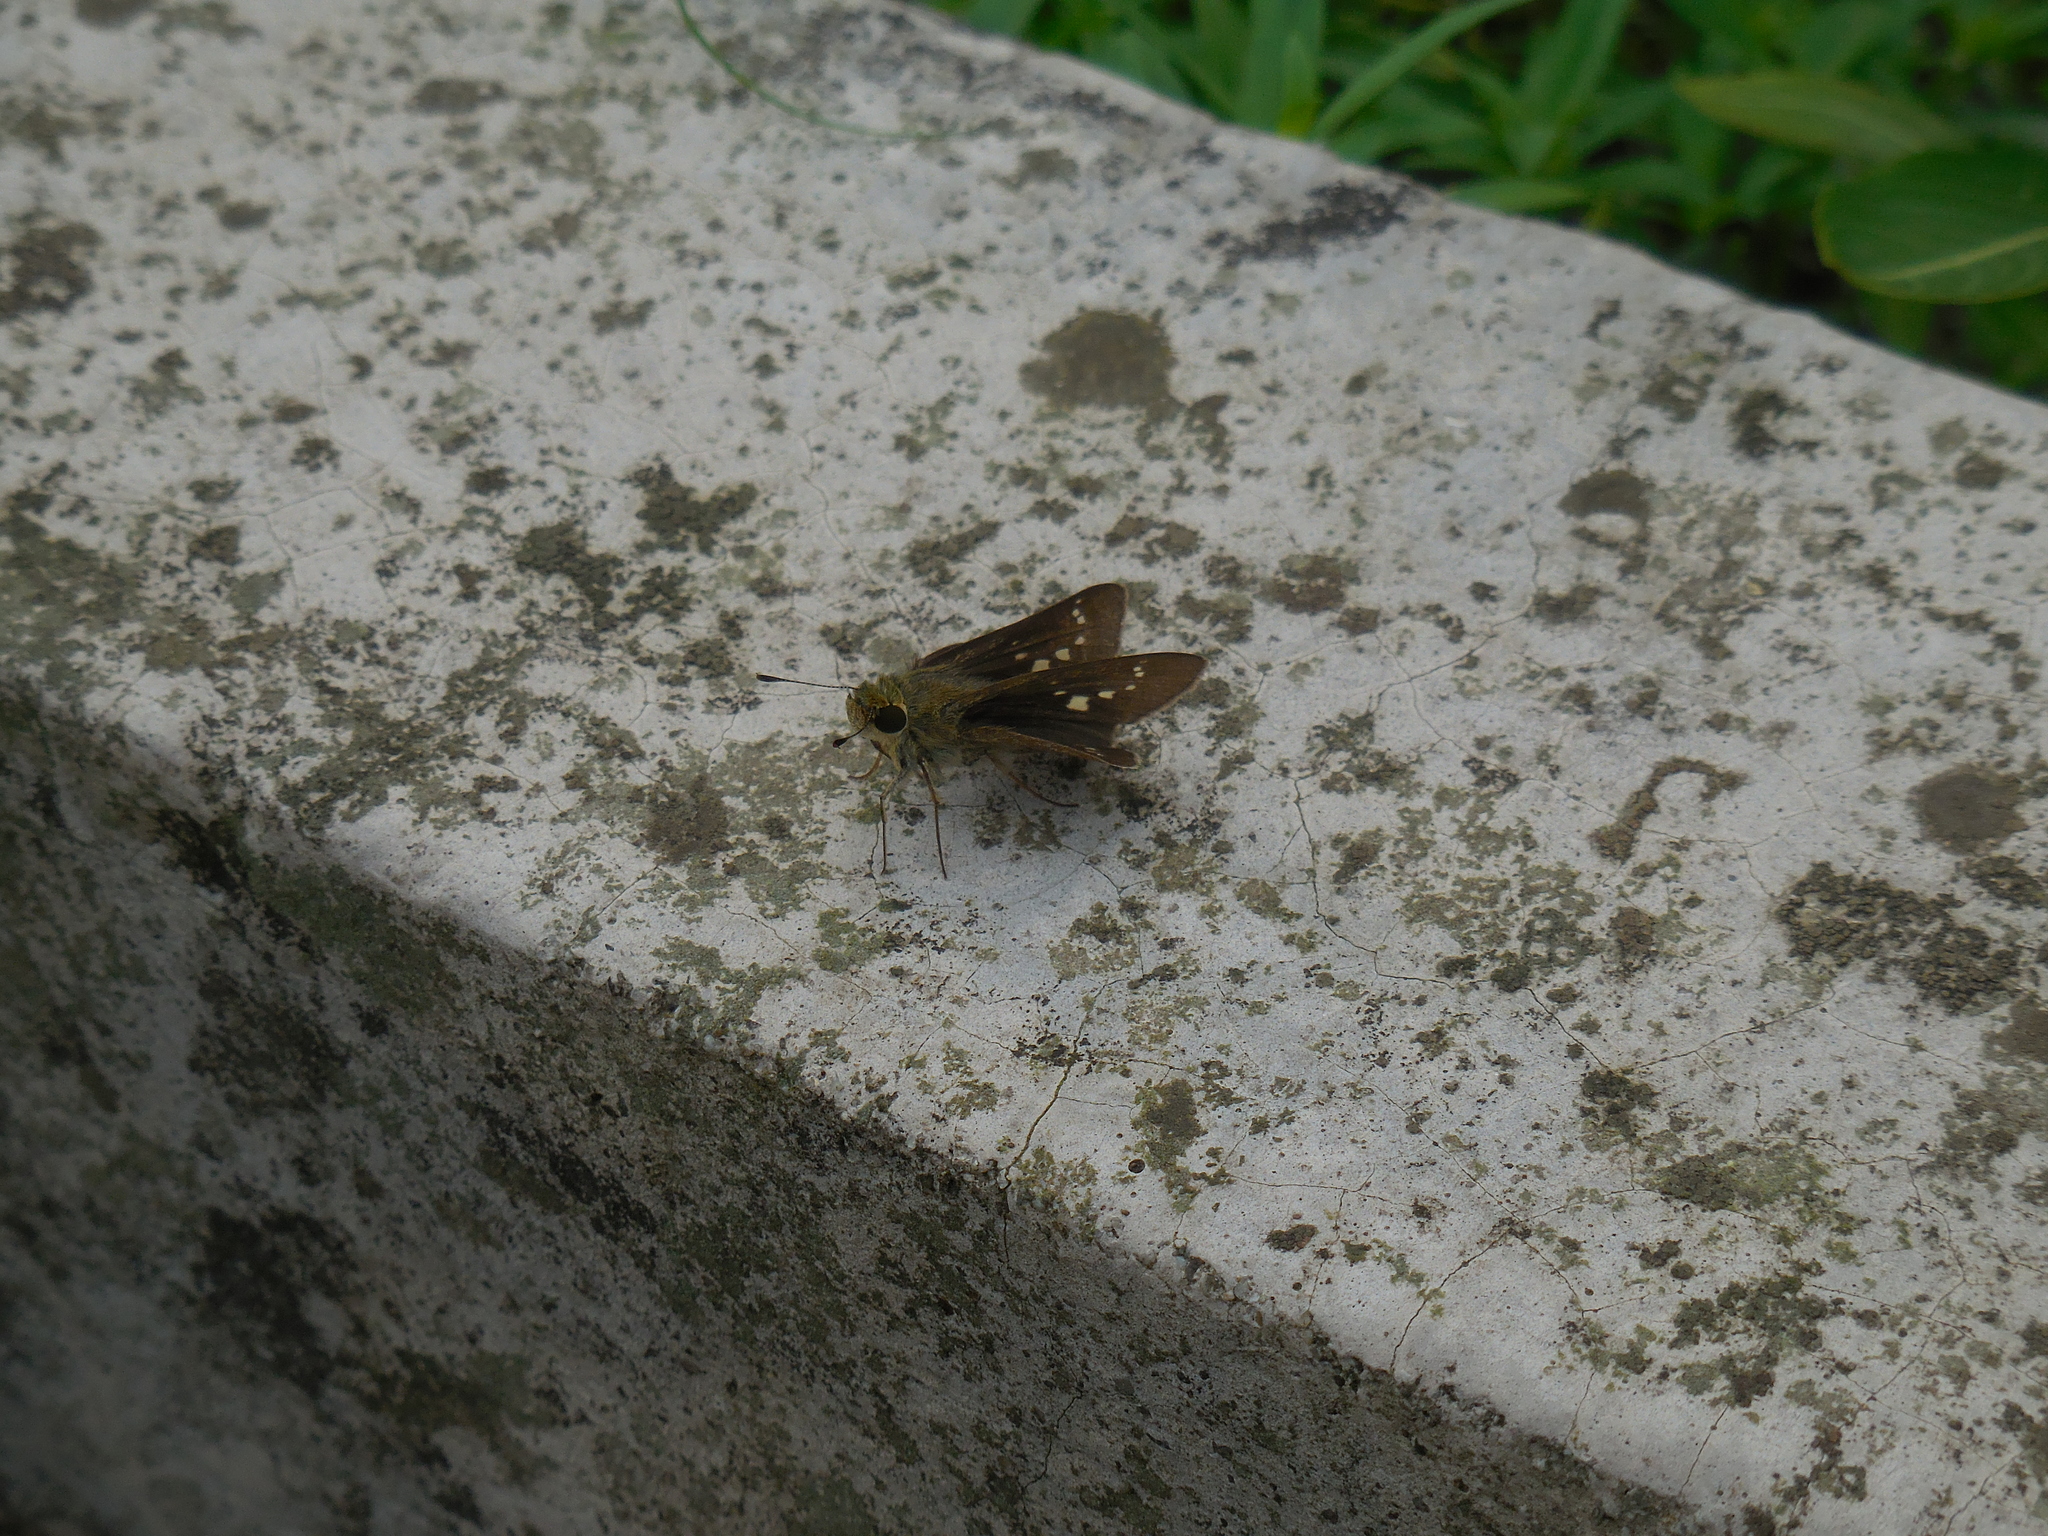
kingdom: Animalia
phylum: Arthropoda
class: Insecta
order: Lepidoptera
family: Hesperiidae
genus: Pseudoborbo
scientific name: Pseudoborbo bevani
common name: Bevan's swift
